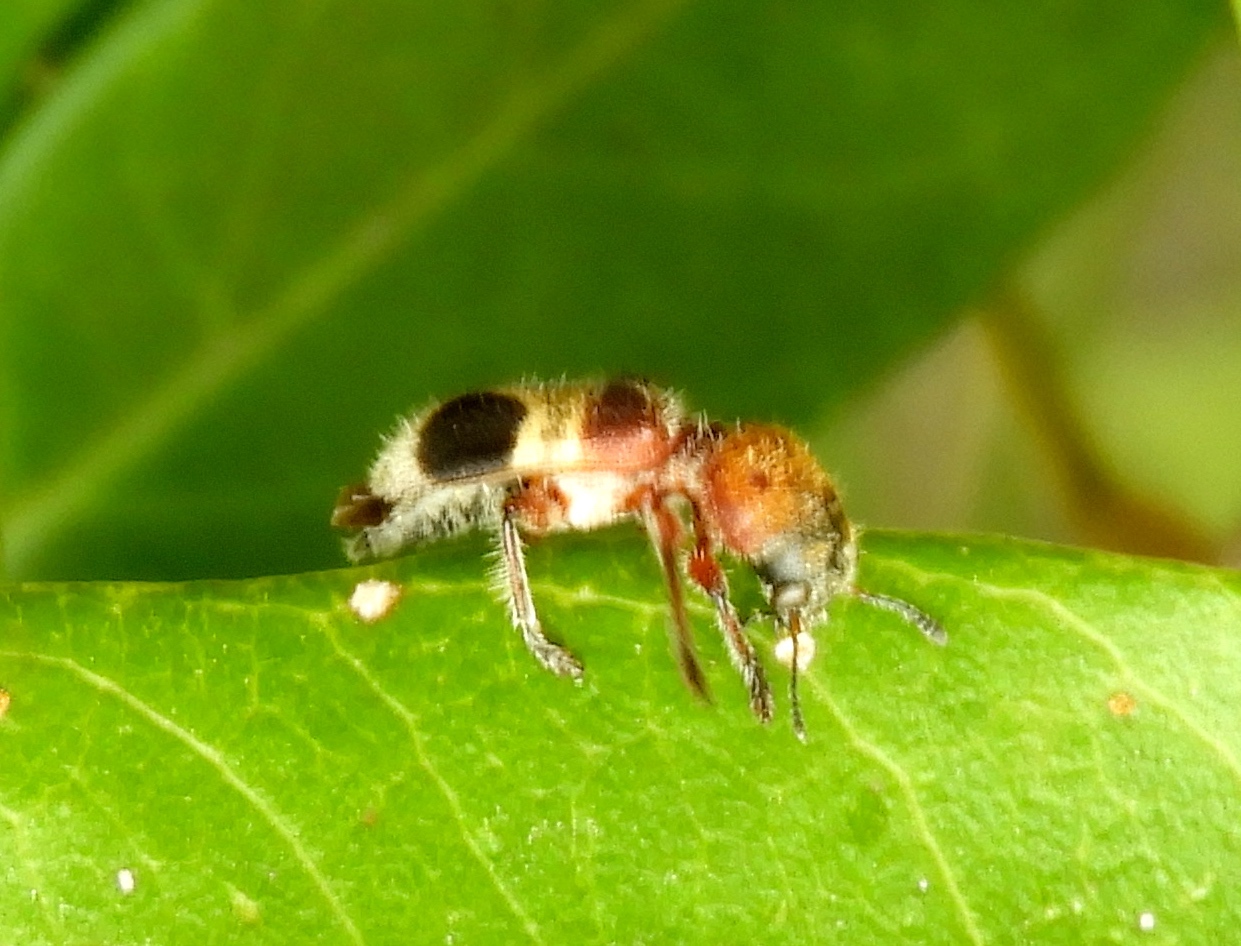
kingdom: Animalia
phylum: Arthropoda
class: Insecta
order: Coleoptera
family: Cleridae
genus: Enoclerus
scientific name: Enoclerus quadriguttatus
